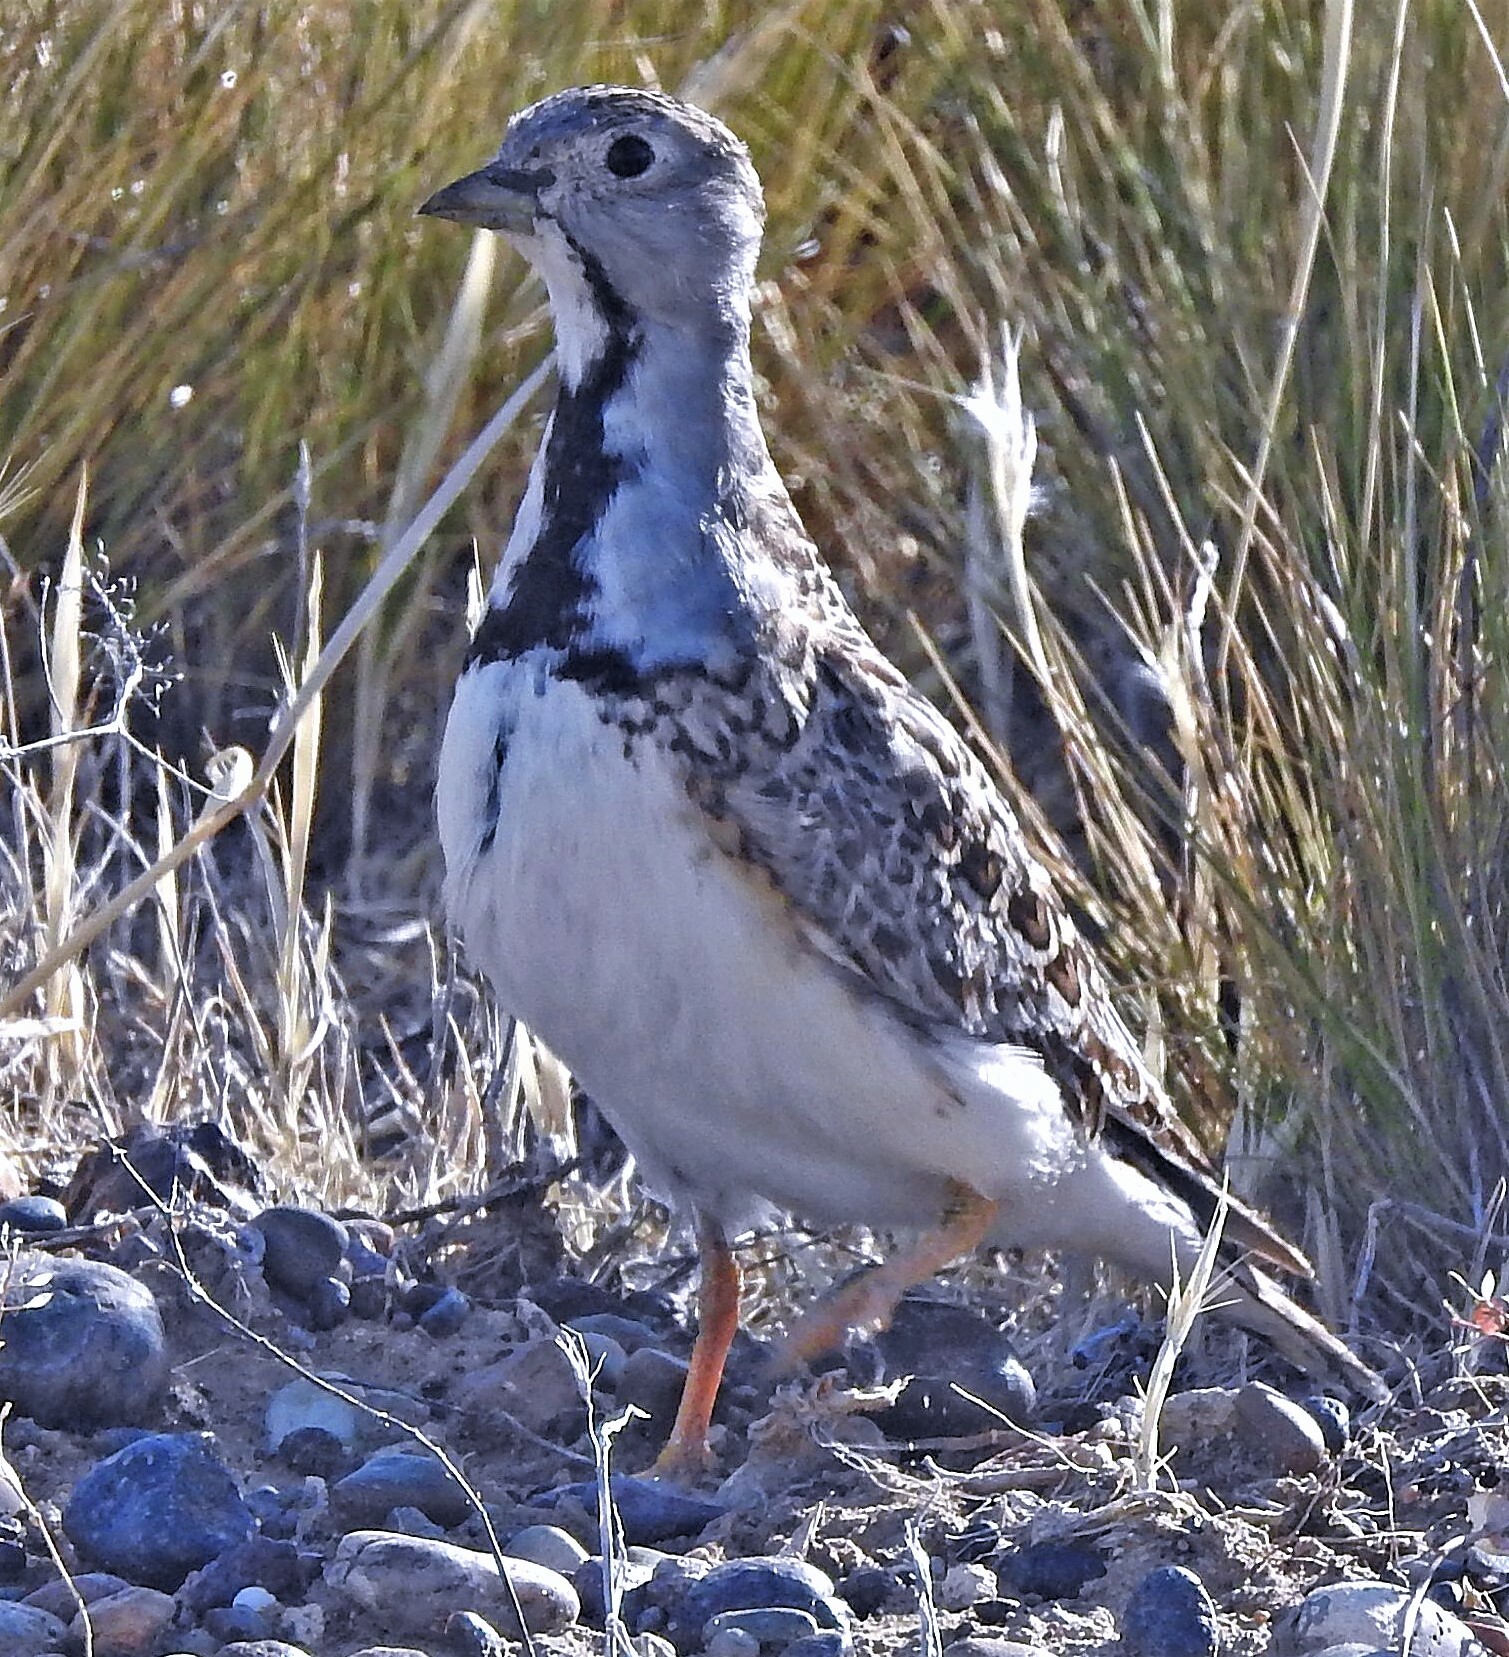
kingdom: Animalia
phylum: Chordata
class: Aves
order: Charadriiformes
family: Thinocoridae
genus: Thinocorus
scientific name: Thinocorus rumicivorus
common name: Least seedsnipe
